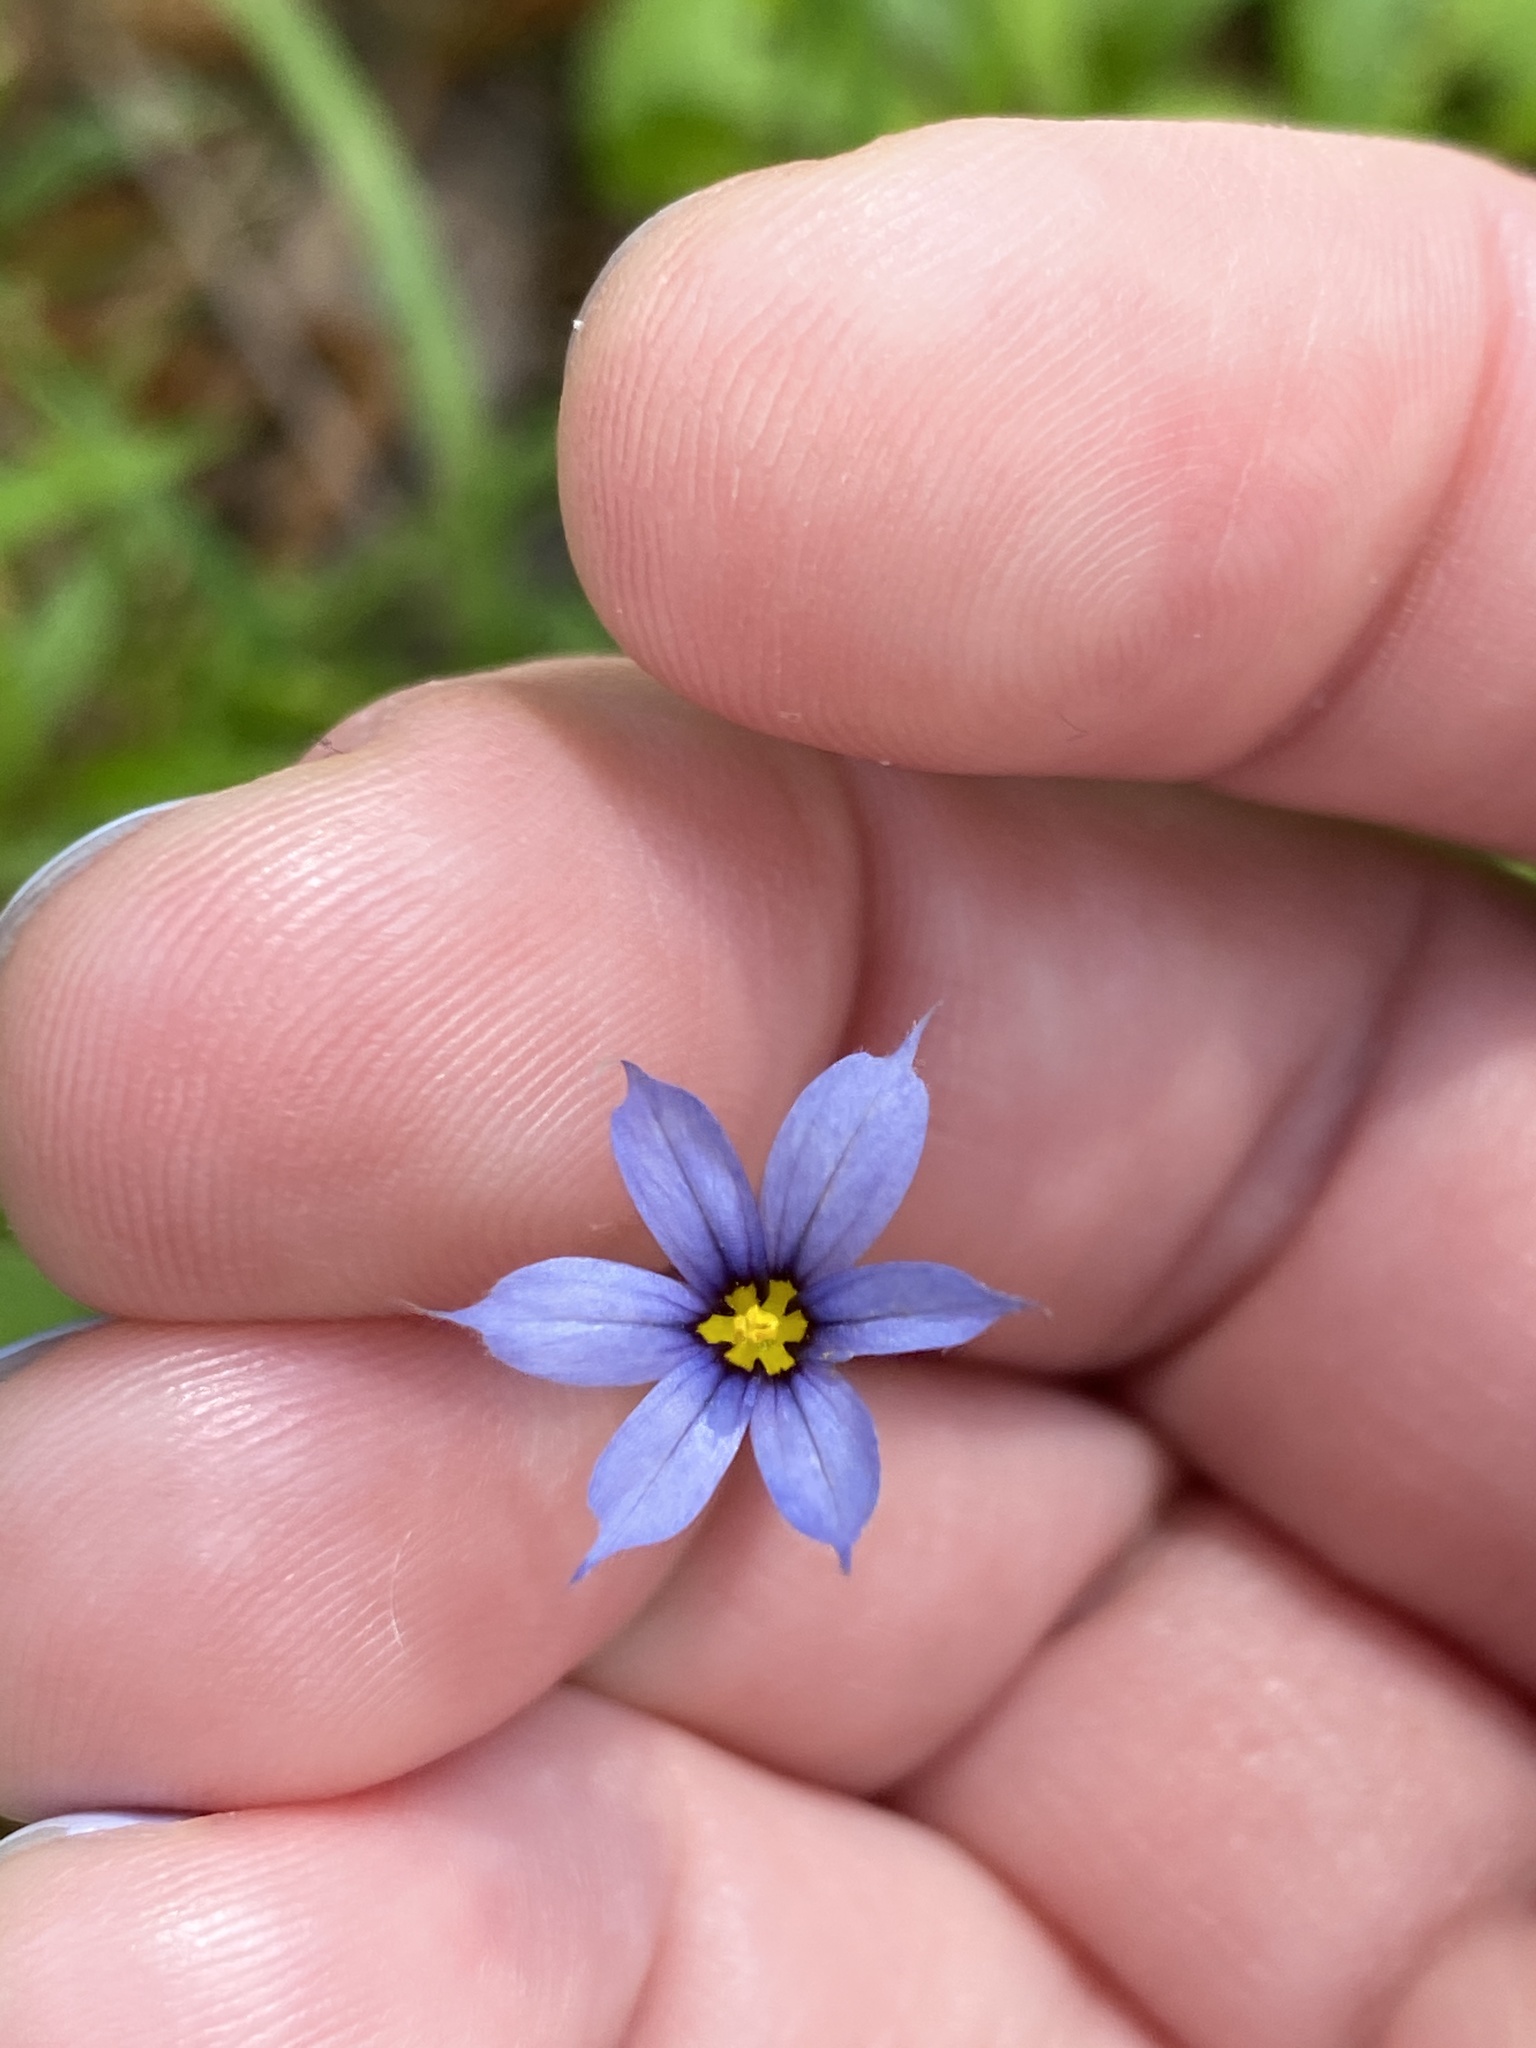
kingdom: Plantae
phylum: Tracheophyta
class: Liliopsida
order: Asparagales
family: Iridaceae
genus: Sisyrinchium
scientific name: Sisyrinchium angustifolium
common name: Narrow-leaf blue-eyed-grass
